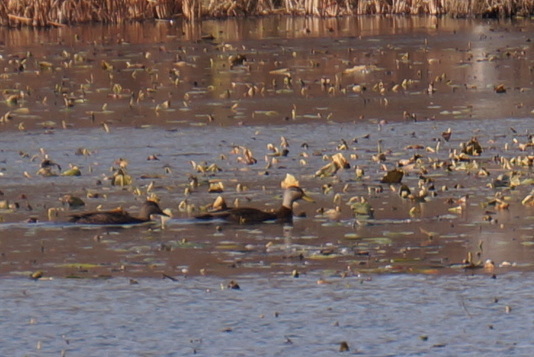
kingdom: Animalia
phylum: Chordata
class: Aves
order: Anseriformes
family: Anatidae
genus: Anas
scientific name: Anas rubripes
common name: American black duck
